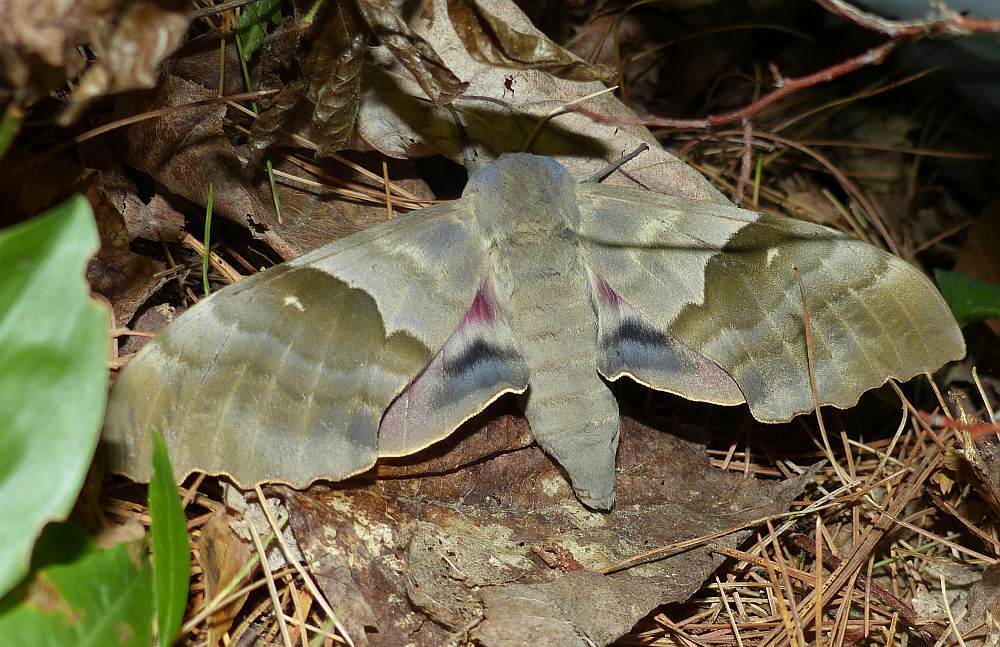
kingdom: Animalia
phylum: Arthropoda
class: Insecta
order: Lepidoptera
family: Sphingidae
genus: Pachysphinx
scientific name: Pachysphinx modesta
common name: Big poplar sphinx
